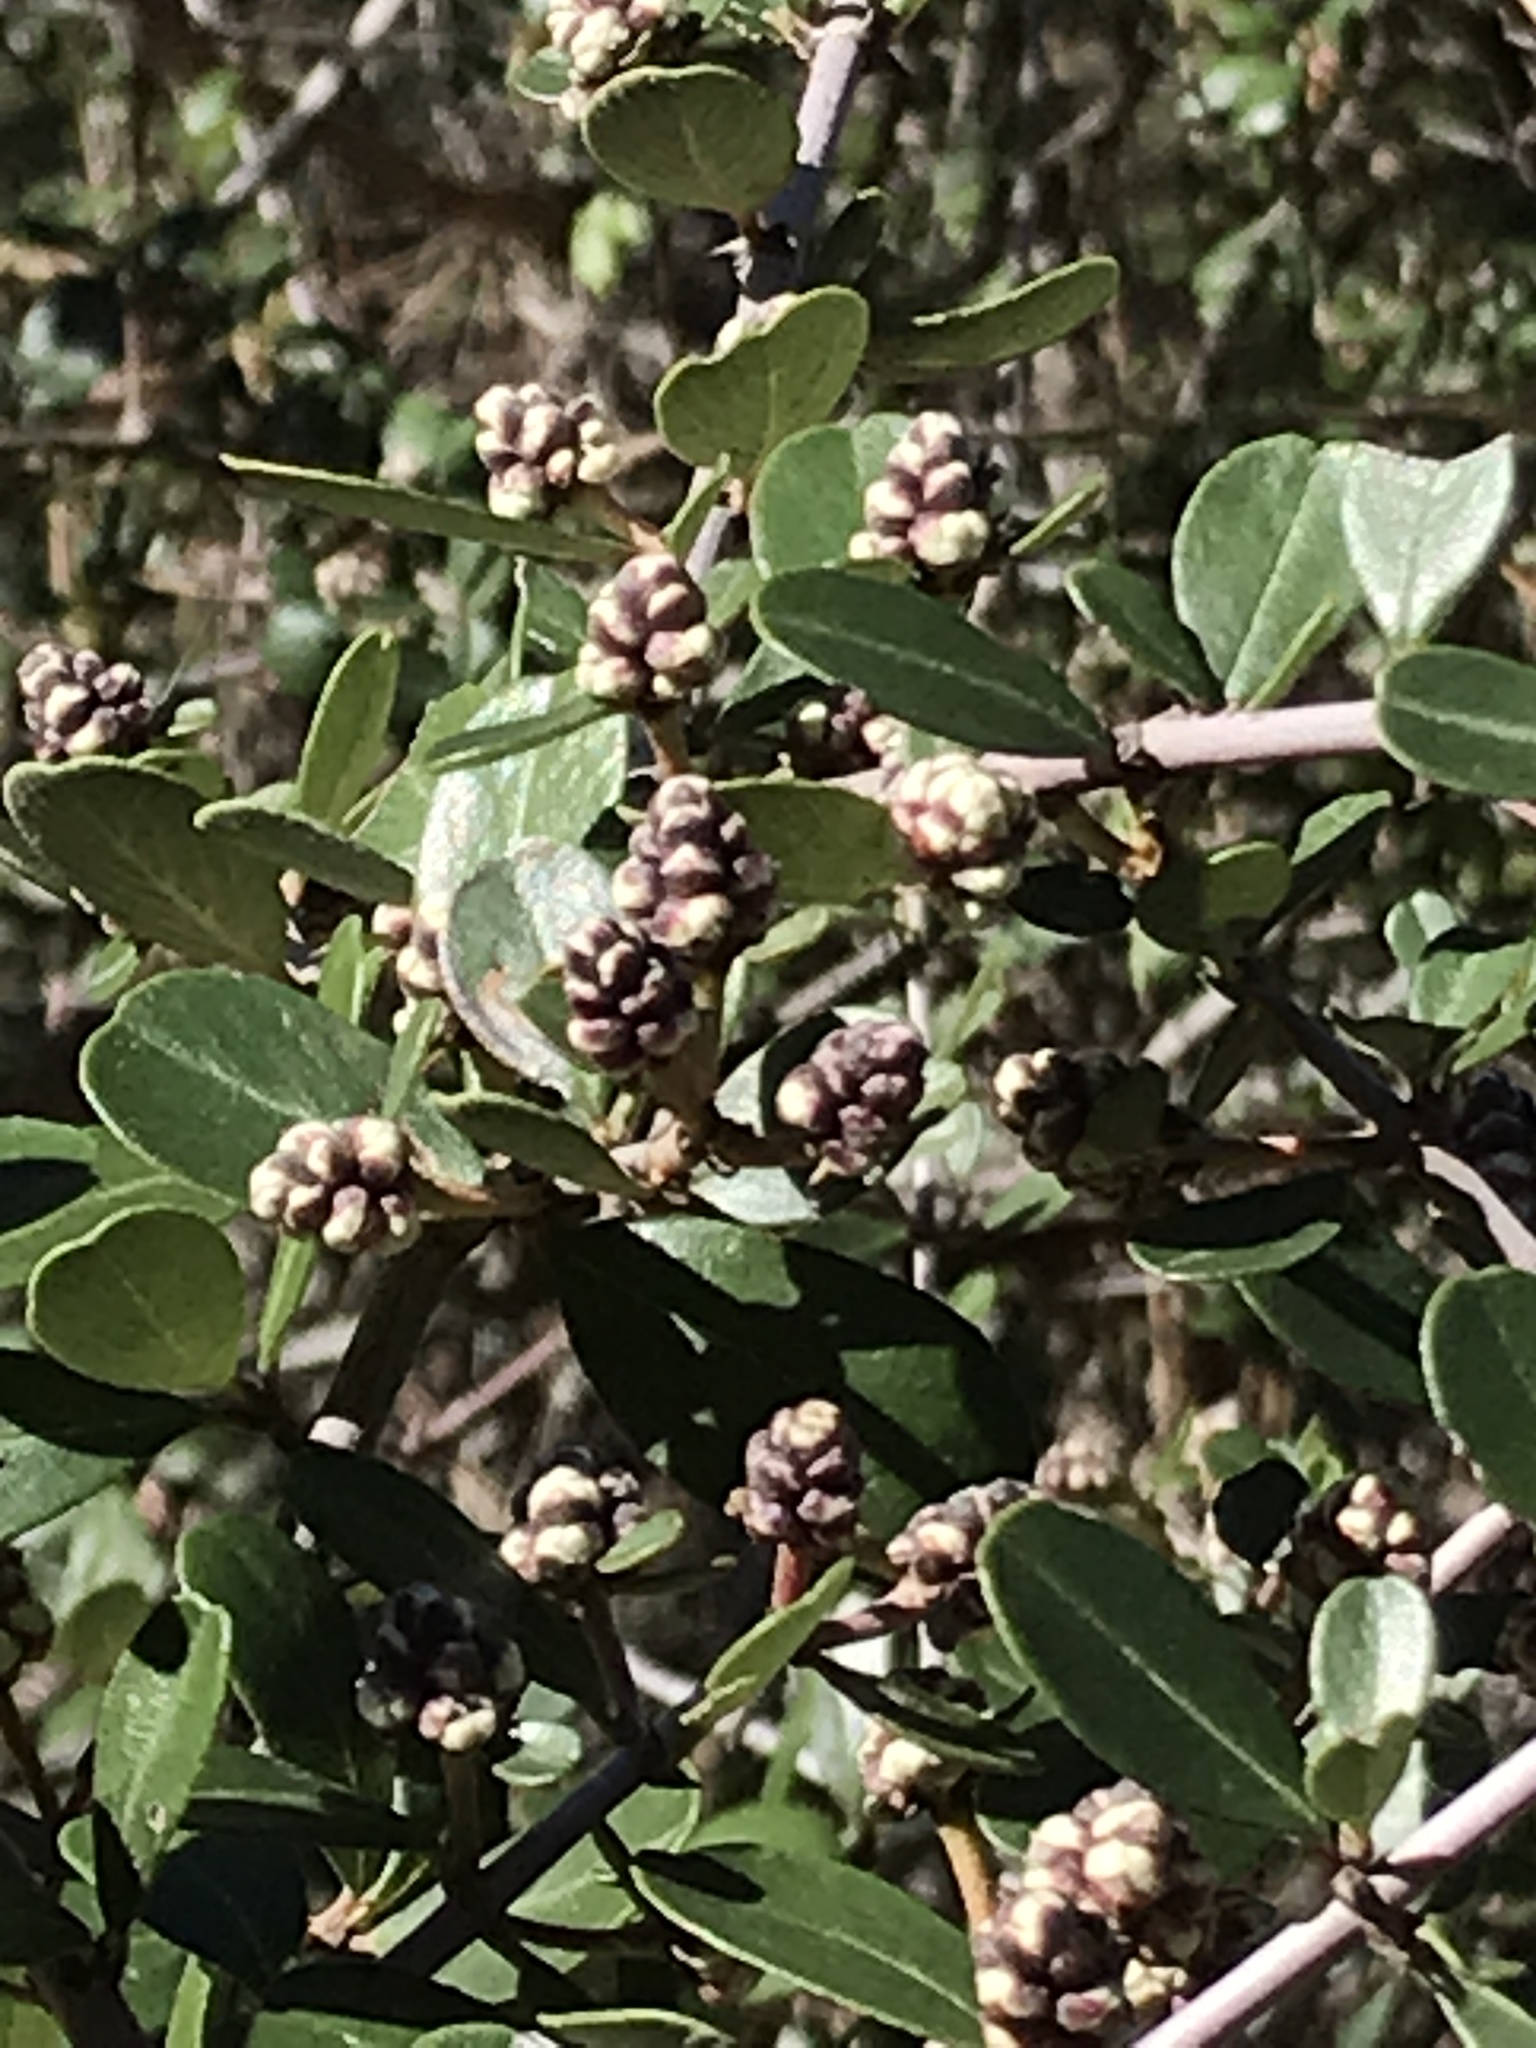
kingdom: Plantae
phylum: Tracheophyta
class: Magnoliopsida
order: Rosales
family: Rhamnaceae
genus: Ceanothus
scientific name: Ceanothus cuneatus
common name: Cuneate ceanothus
